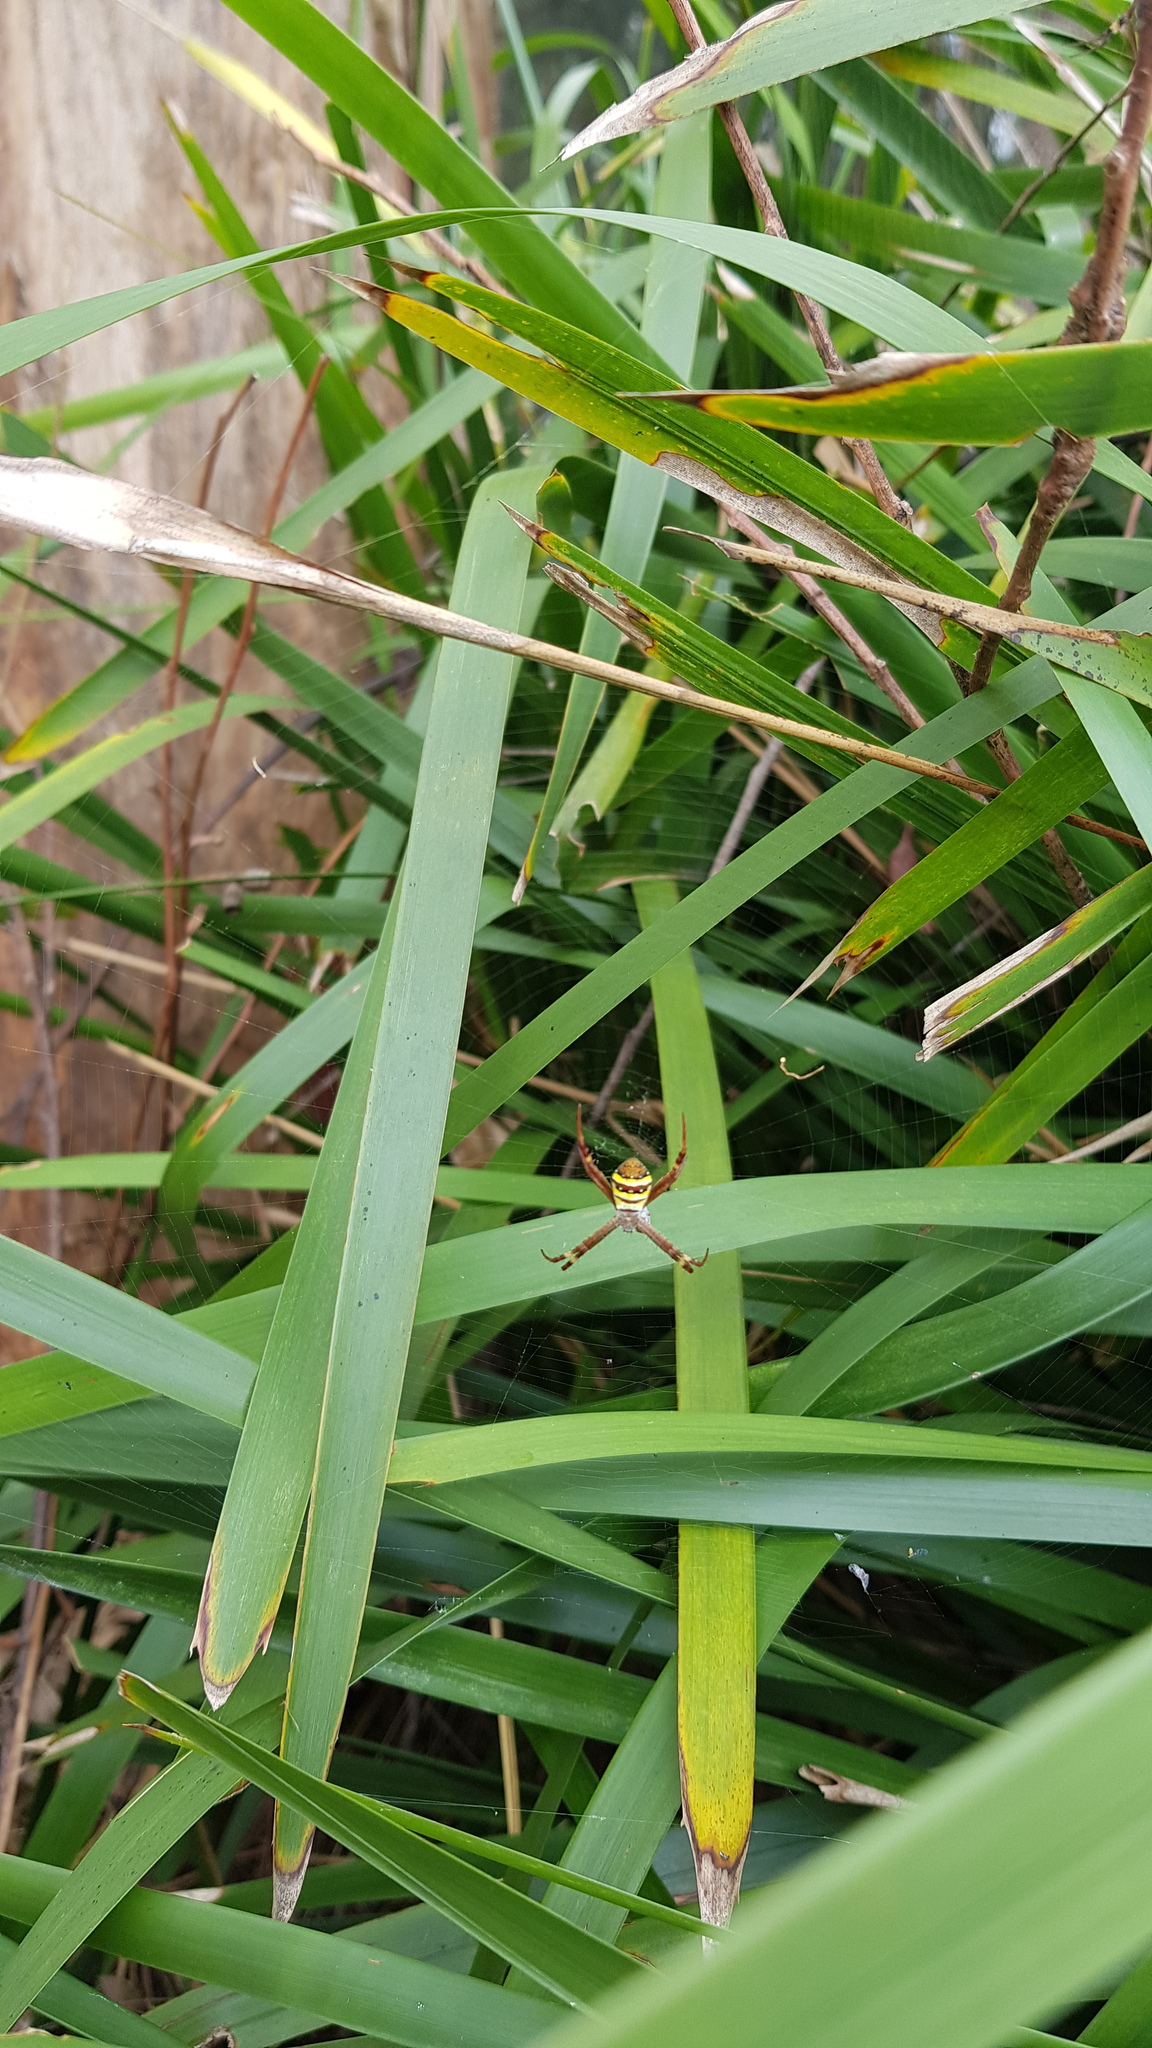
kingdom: Animalia
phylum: Arthropoda
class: Arachnida
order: Araneae
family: Araneidae
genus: Argiope
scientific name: Argiope keyserlingi
